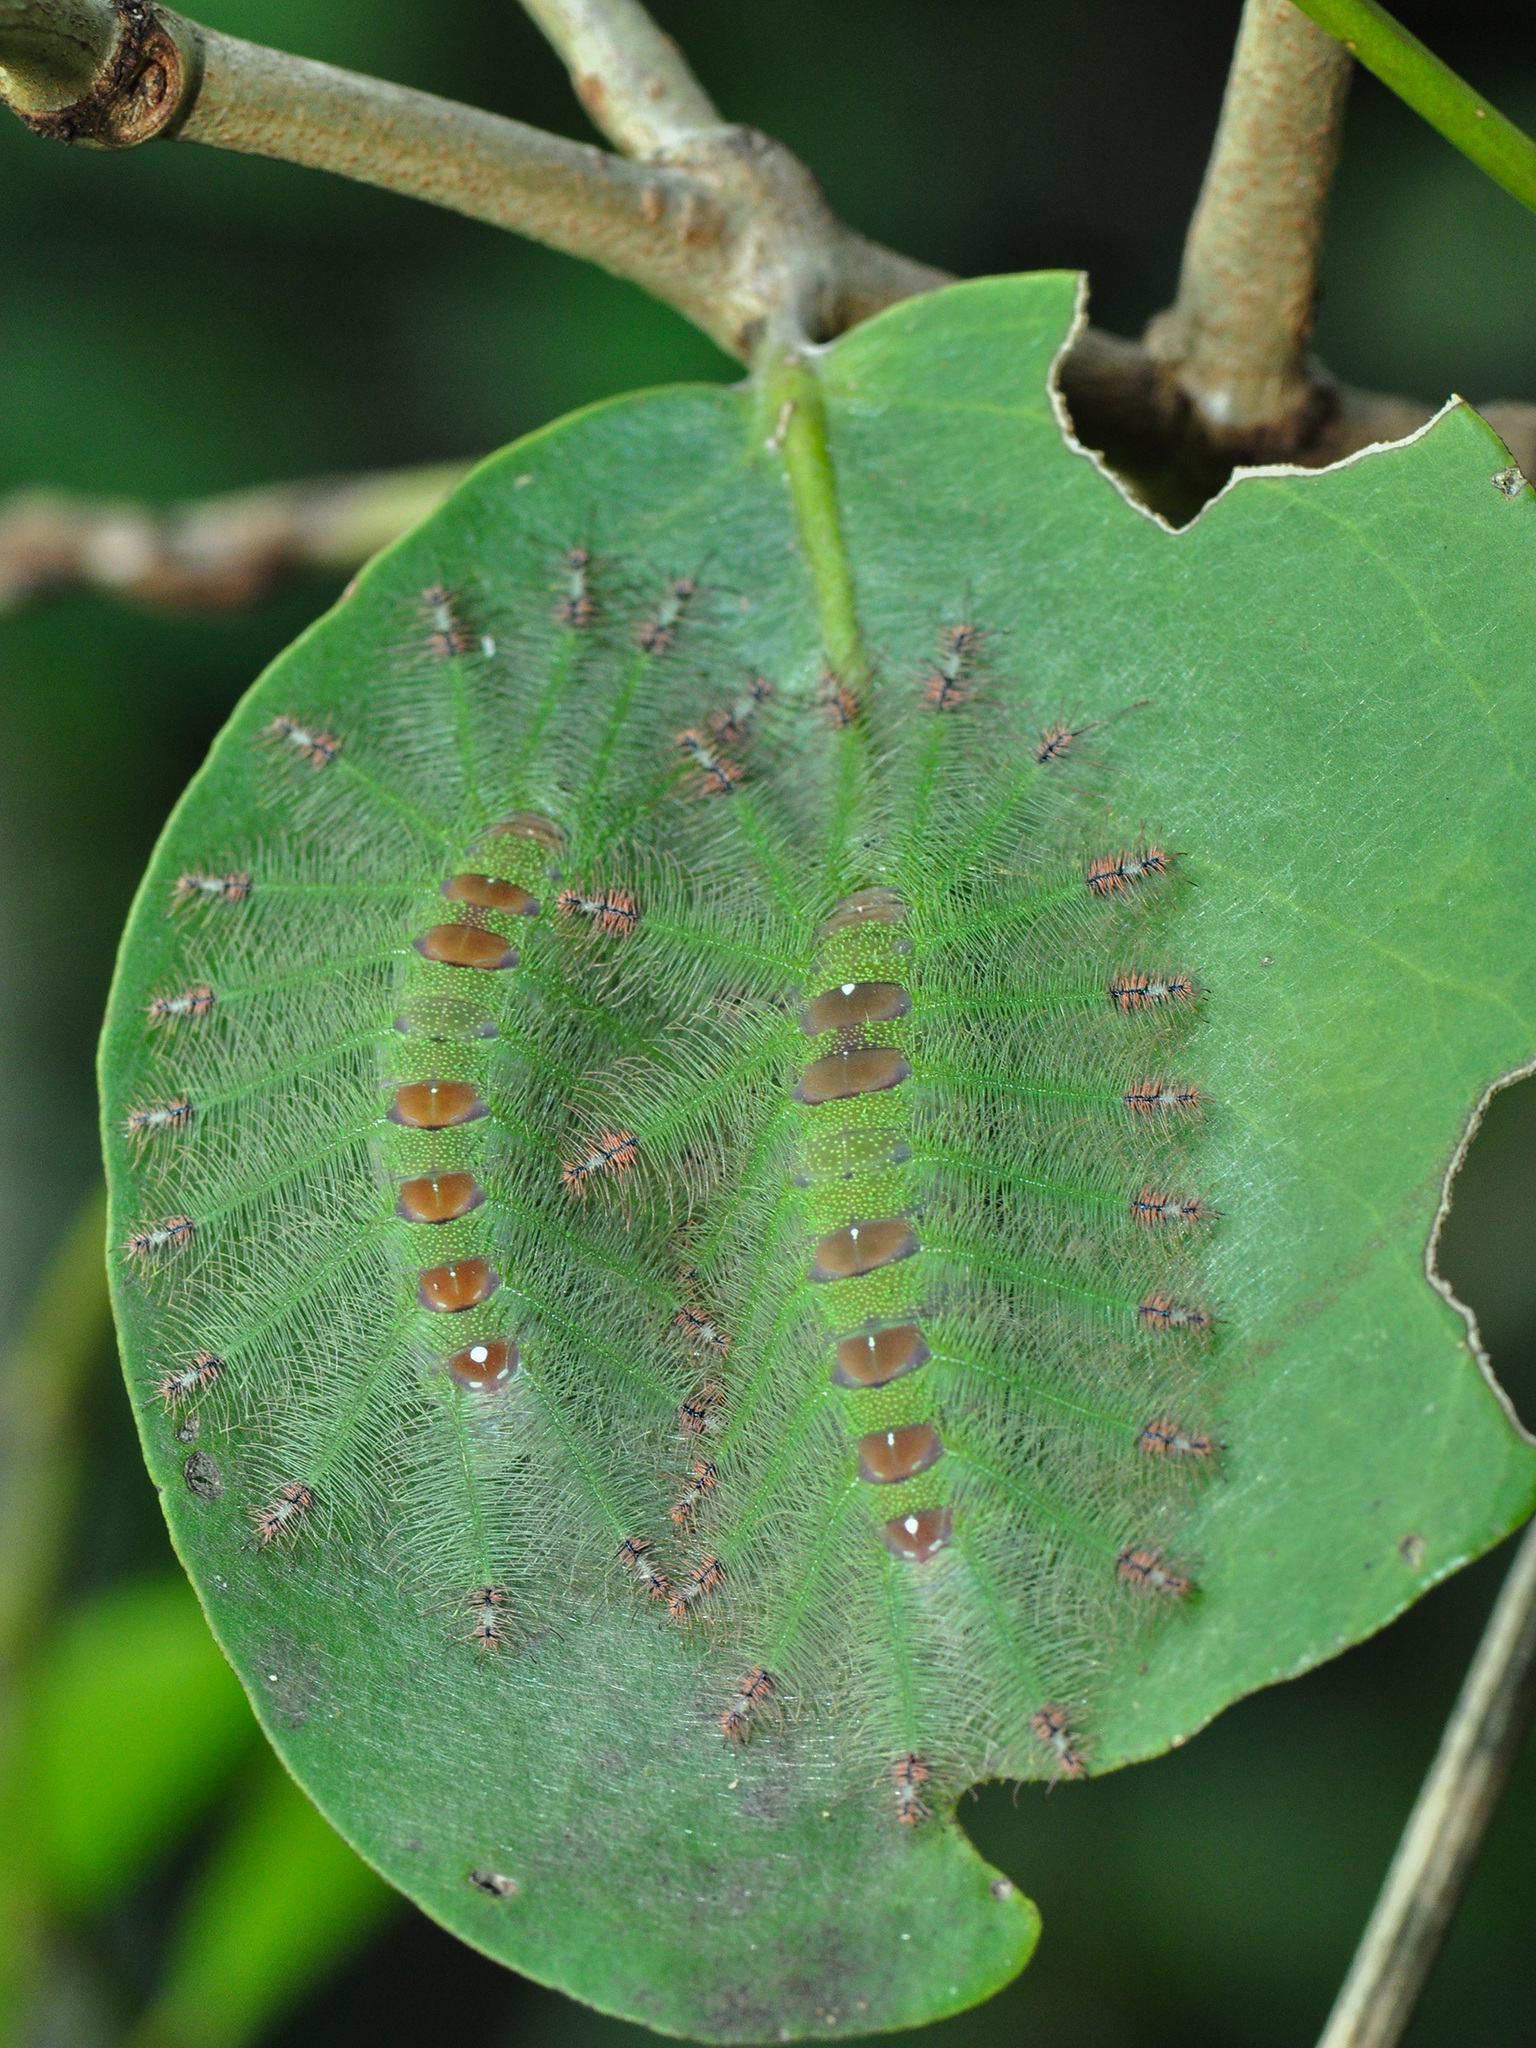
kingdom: Animalia
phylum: Arthropoda
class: Insecta
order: Lepidoptera
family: Nymphalidae
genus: Euthalia
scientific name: Euthalia adonia
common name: Green baron
